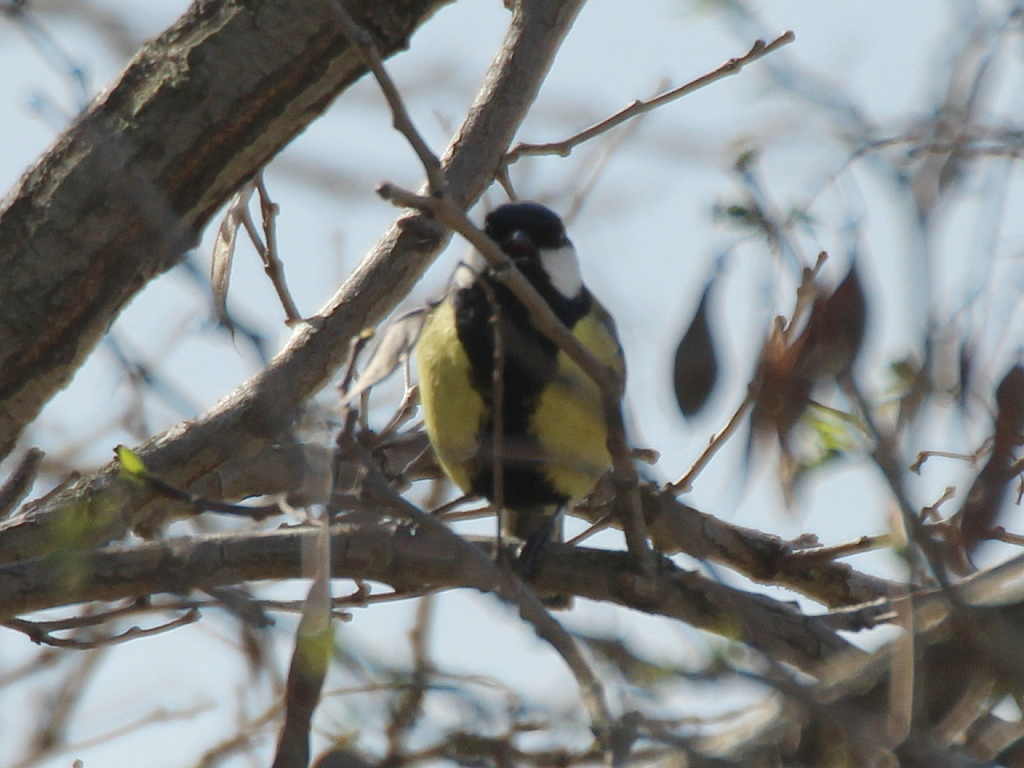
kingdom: Animalia
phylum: Chordata
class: Aves
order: Passeriformes
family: Paridae
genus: Parus
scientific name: Parus major
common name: Great tit
